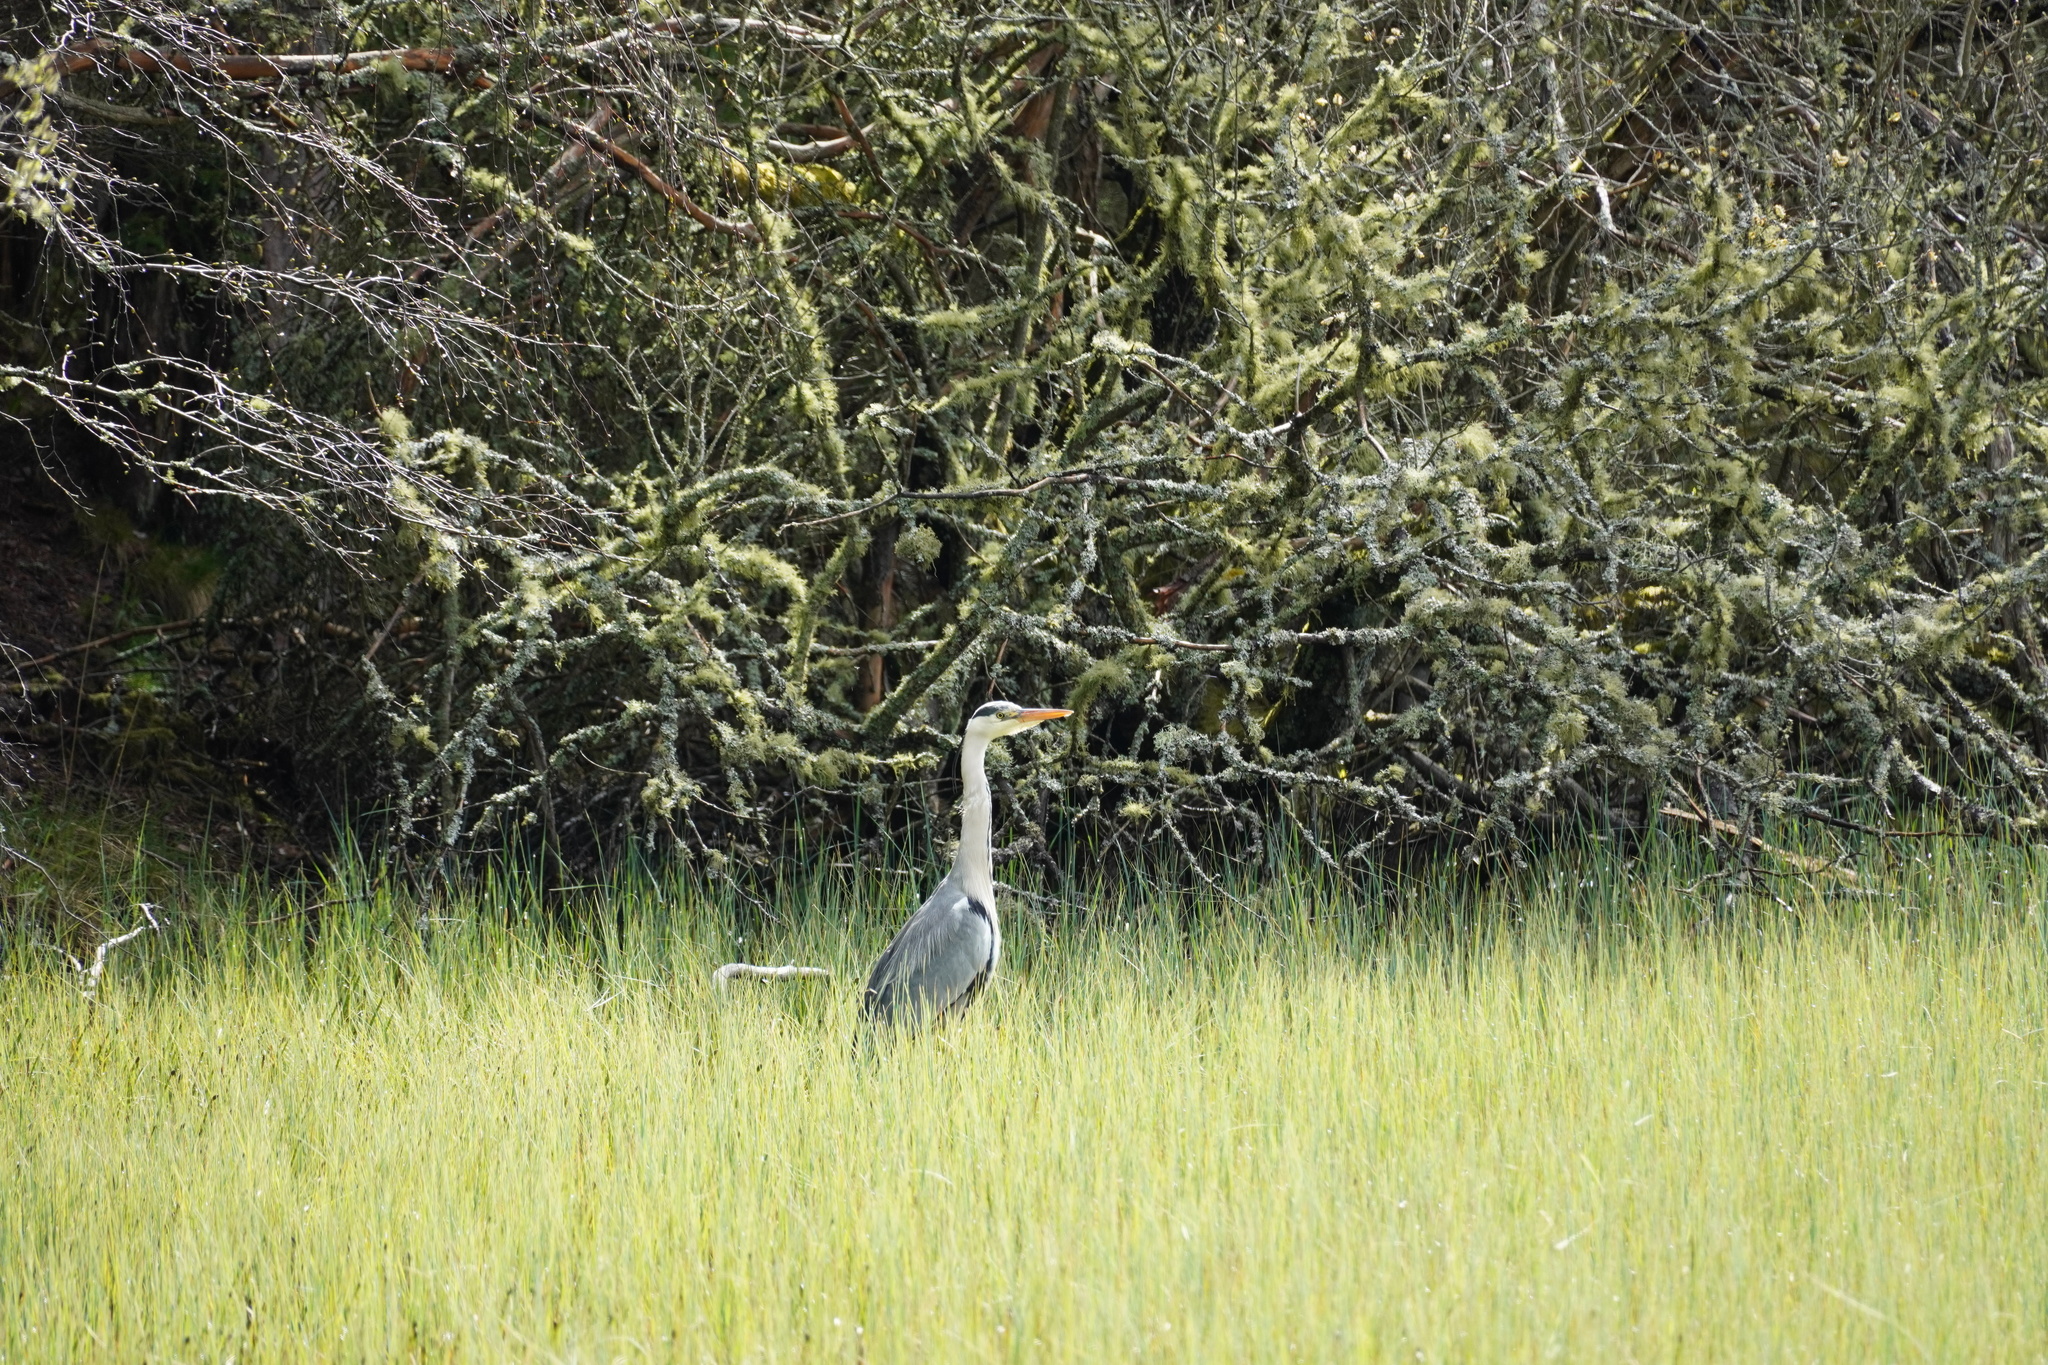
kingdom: Animalia
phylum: Chordata
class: Aves
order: Pelecaniformes
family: Ardeidae
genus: Ardea
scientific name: Ardea cinerea
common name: Grey heron
